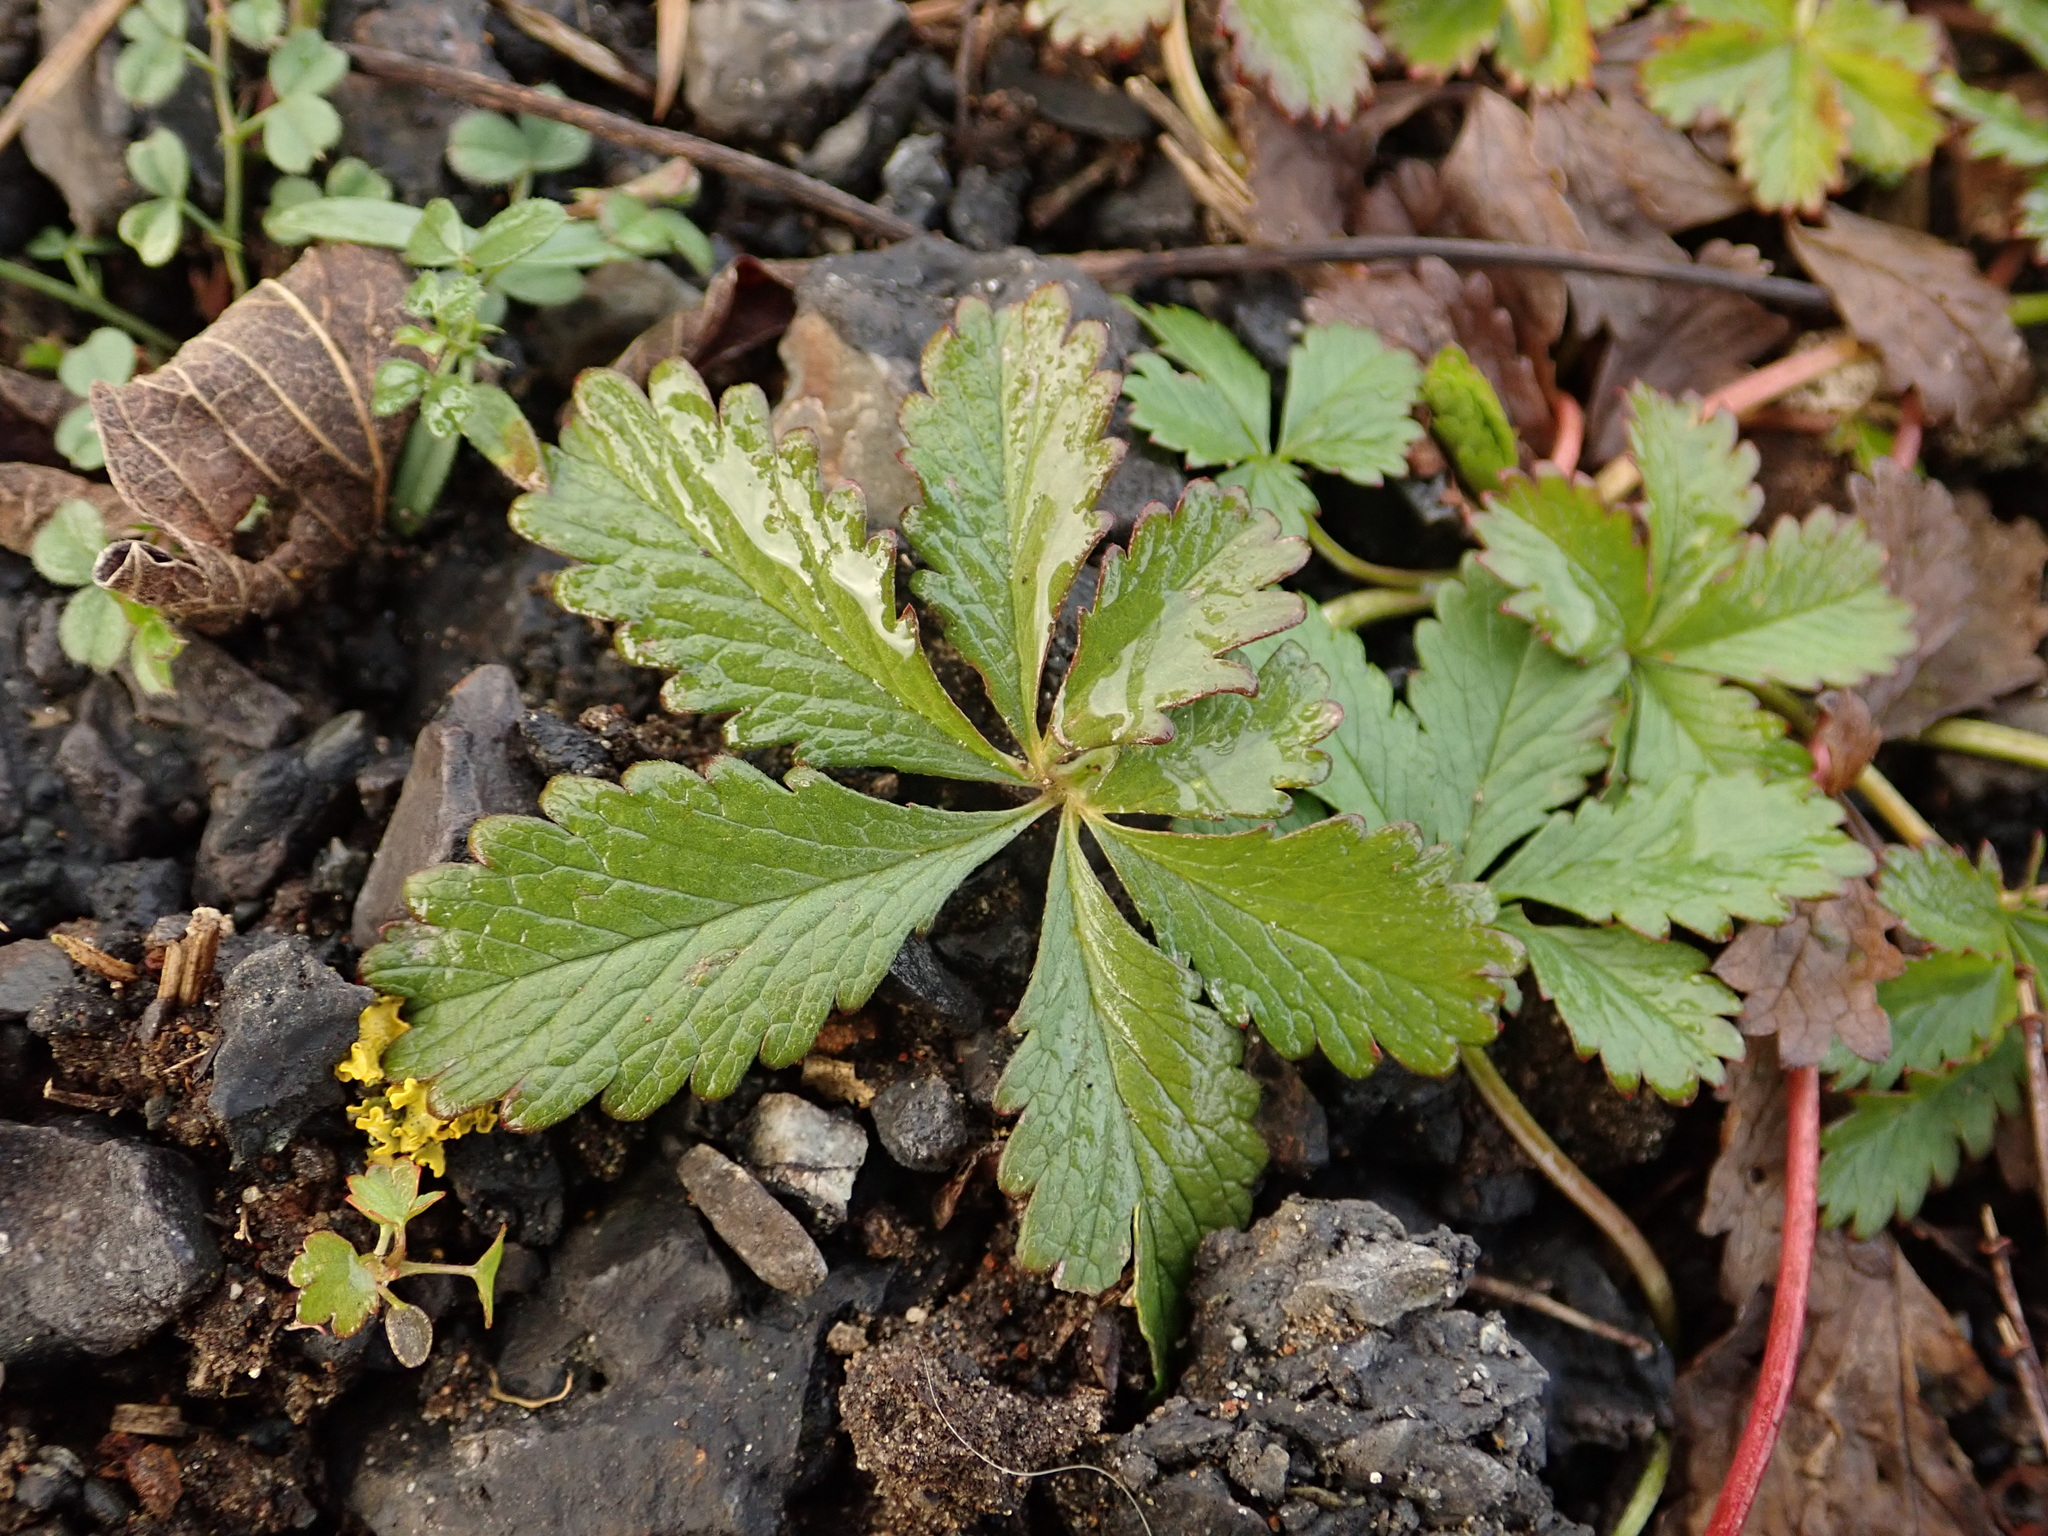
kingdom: Plantae
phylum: Tracheophyta
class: Magnoliopsida
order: Rosales
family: Rosaceae
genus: Potentilla
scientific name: Potentilla reptans
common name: Creeping cinquefoil
